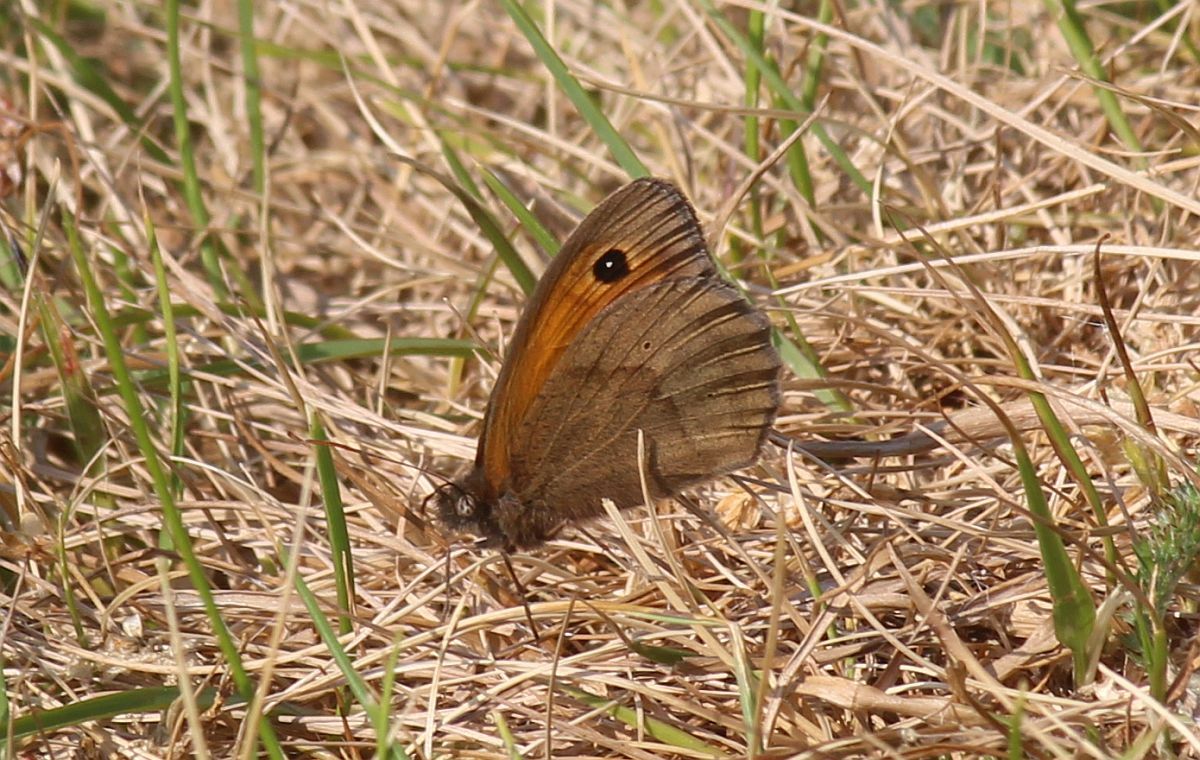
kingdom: Animalia
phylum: Arthropoda
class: Insecta
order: Lepidoptera
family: Nymphalidae
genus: Maniola
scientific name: Maniola jurtina
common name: Meadow brown
